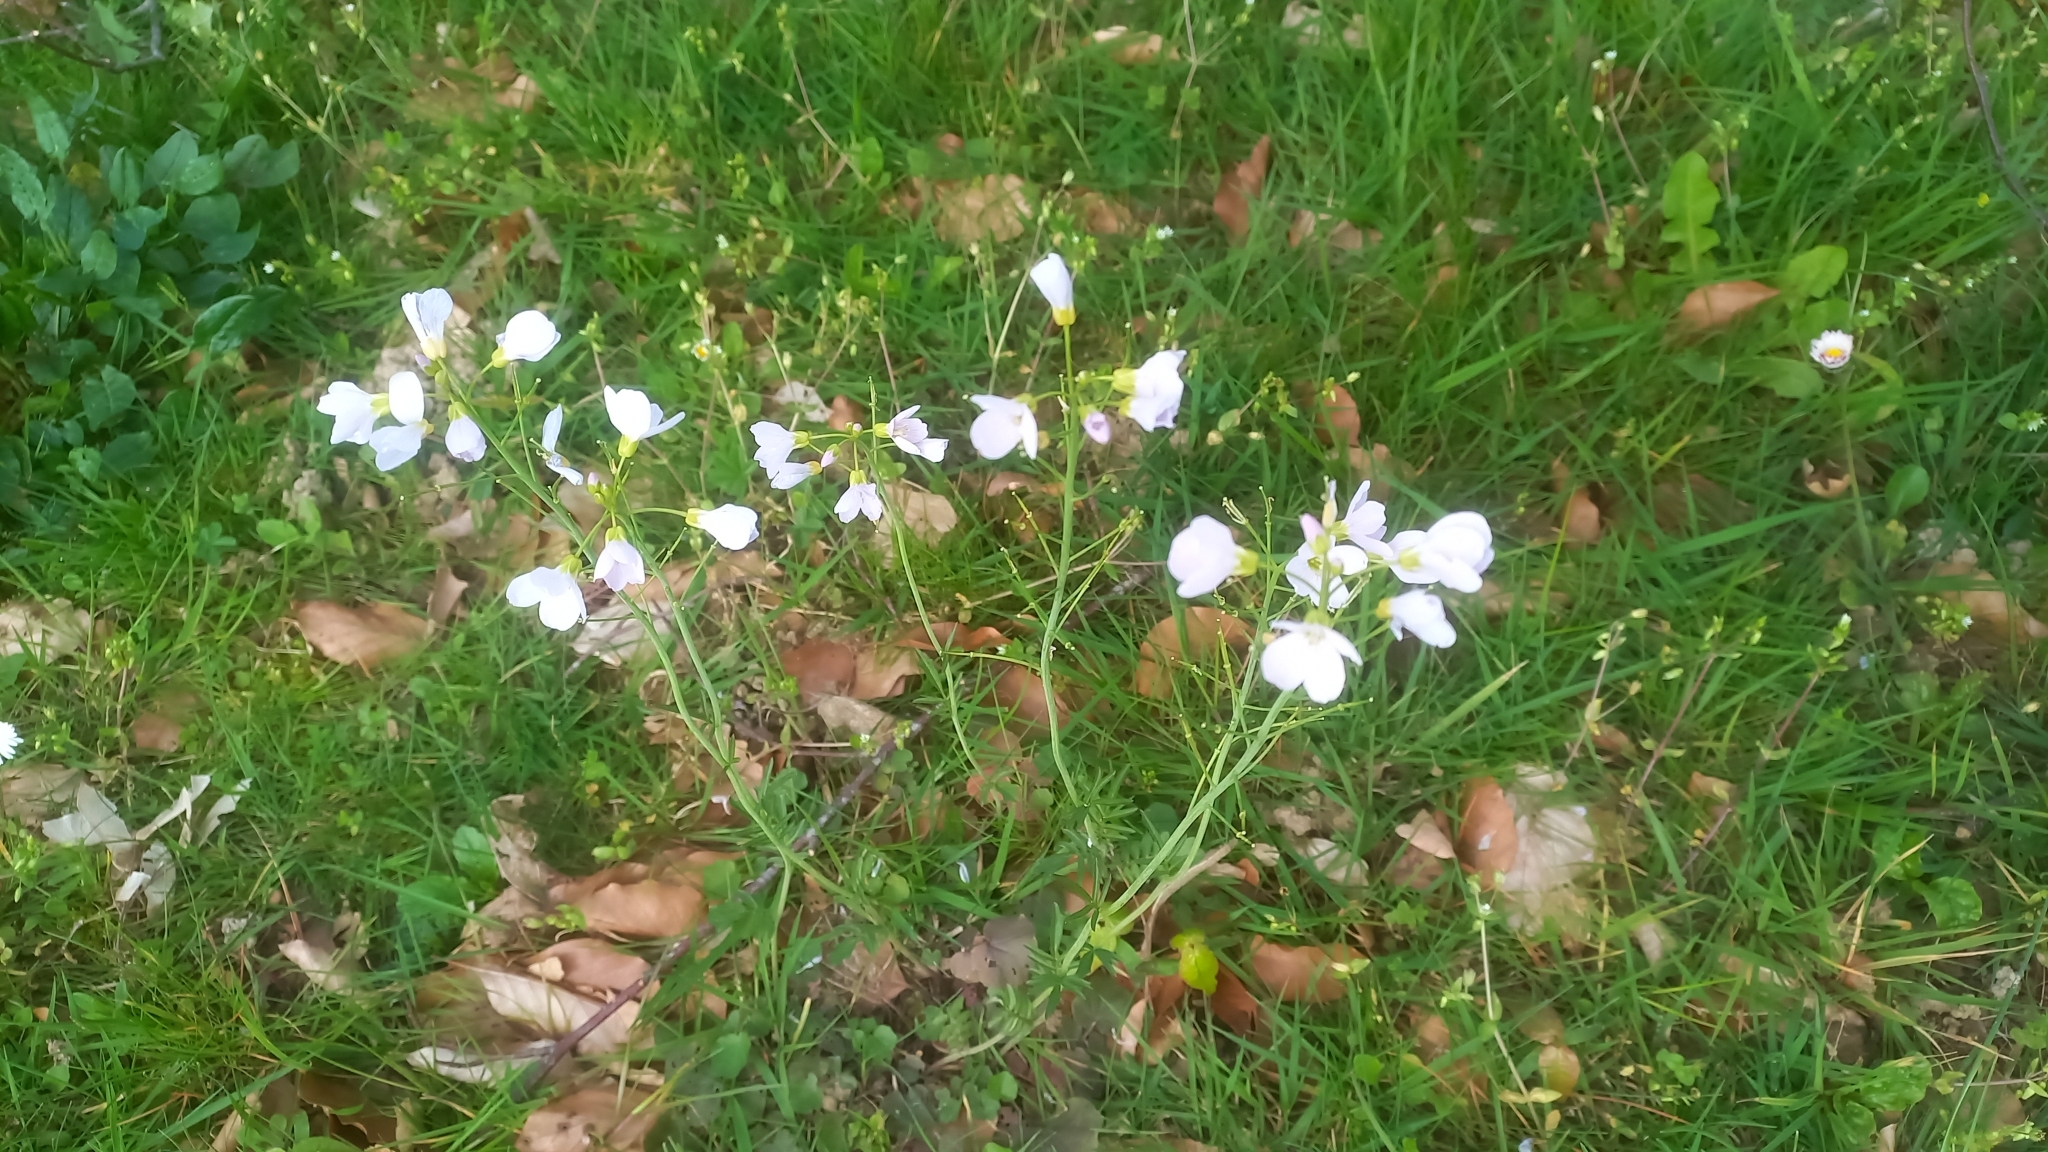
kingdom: Plantae
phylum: Tracheophyta
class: Magnoliopsida
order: Brassicales
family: Brassicaceae
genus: Cardamine
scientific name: Cardamine pratensis
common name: Cuckoo flower
